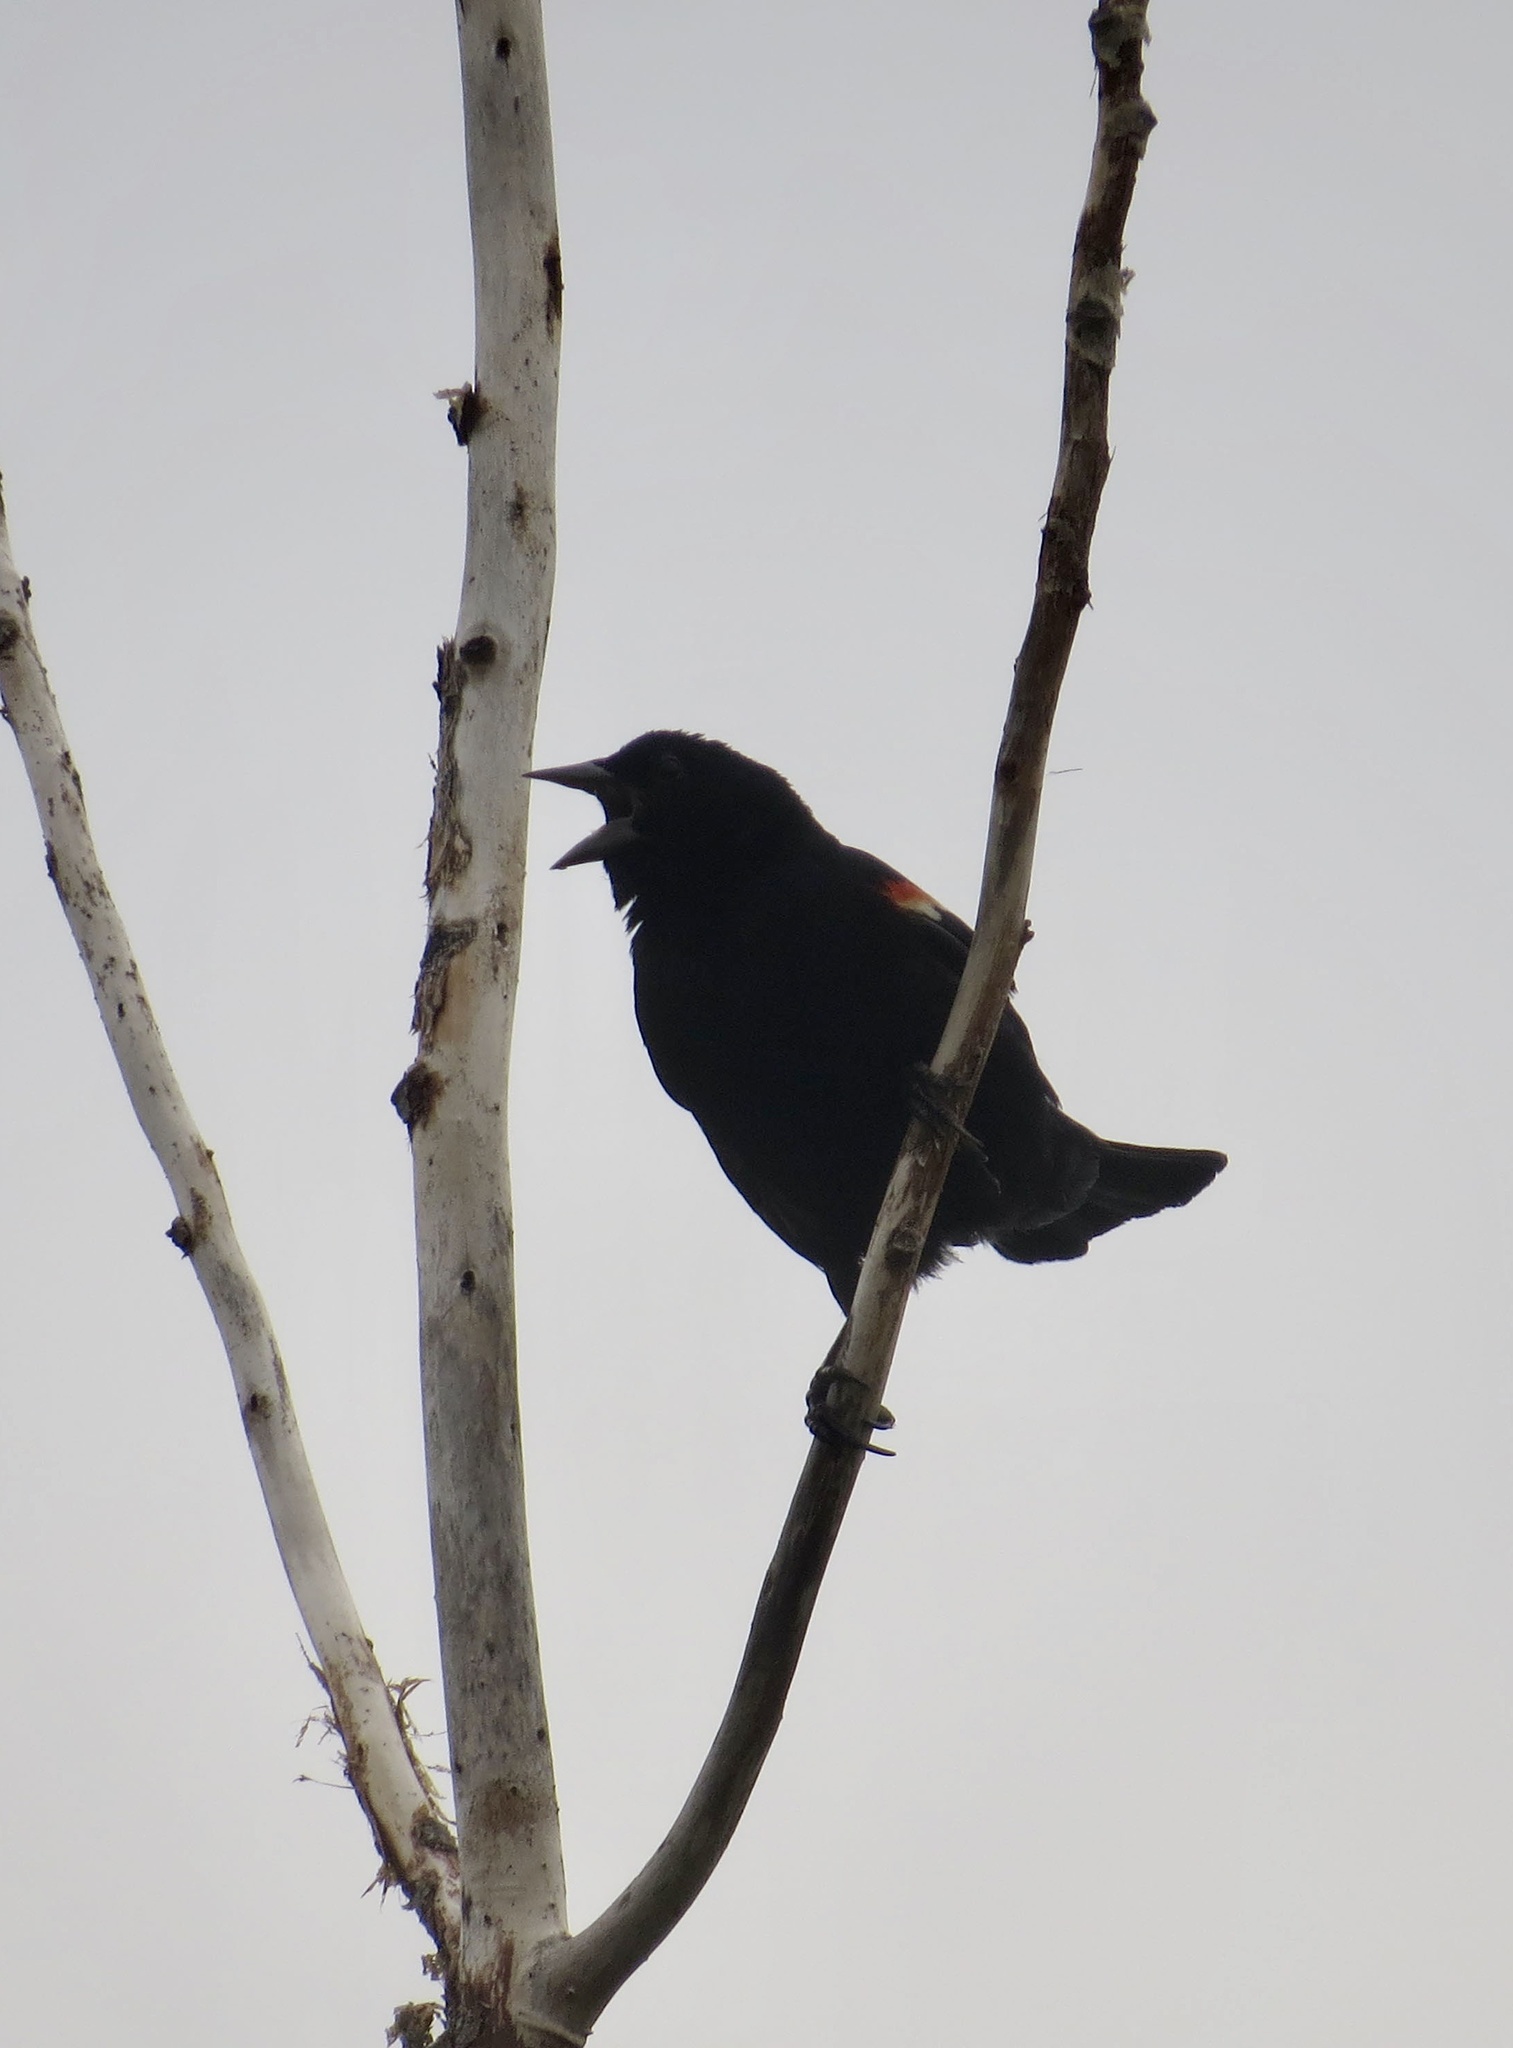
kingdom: Animalia
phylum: Chordata
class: Aves
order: Passeriformes
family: Icteridae
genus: Agelaius
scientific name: Agelaius phoeniceus
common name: Red-winged blackbird
